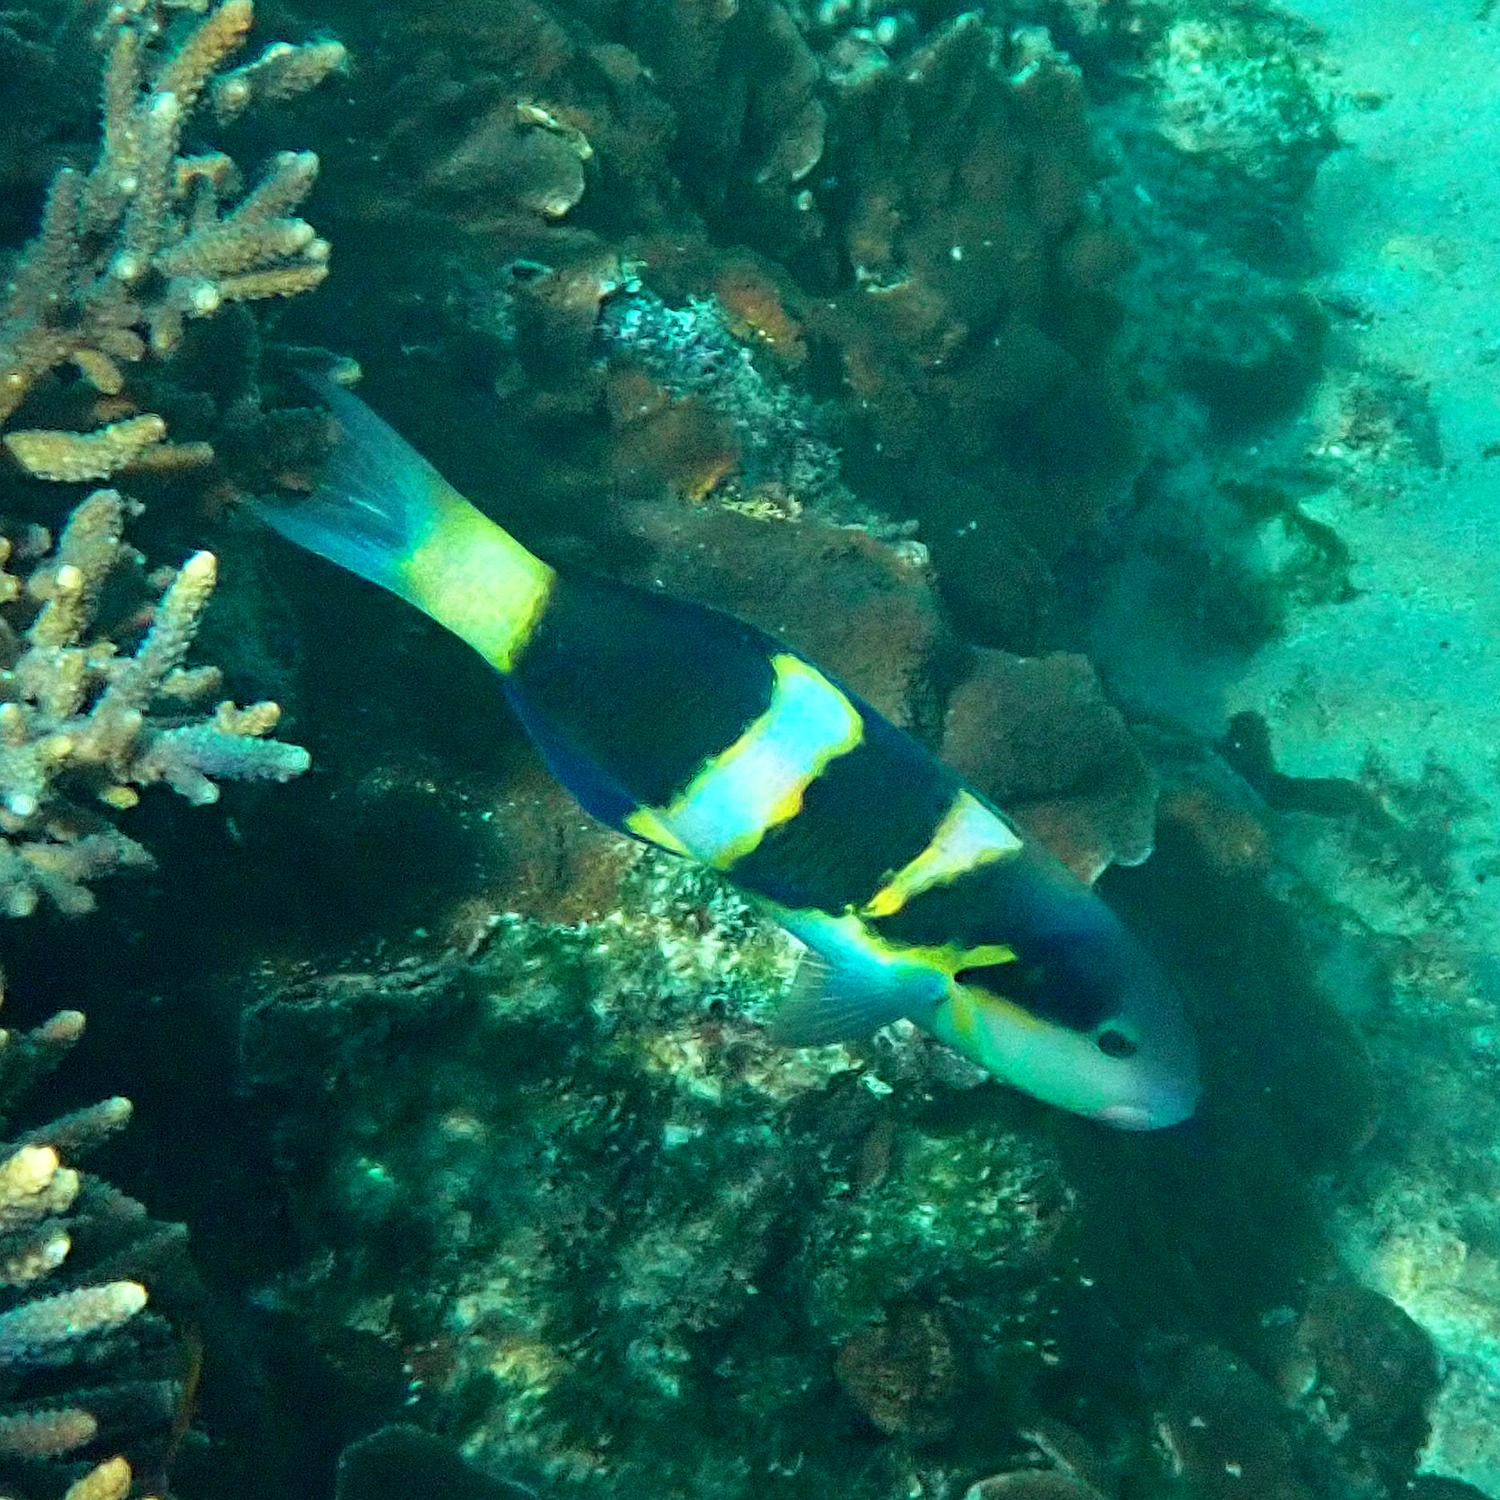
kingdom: Animalia
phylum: Chordata
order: Perciformes
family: Labridae
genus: Thalassoma
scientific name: Thalassoma nigrofasciatum
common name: Black-barred wrasse
